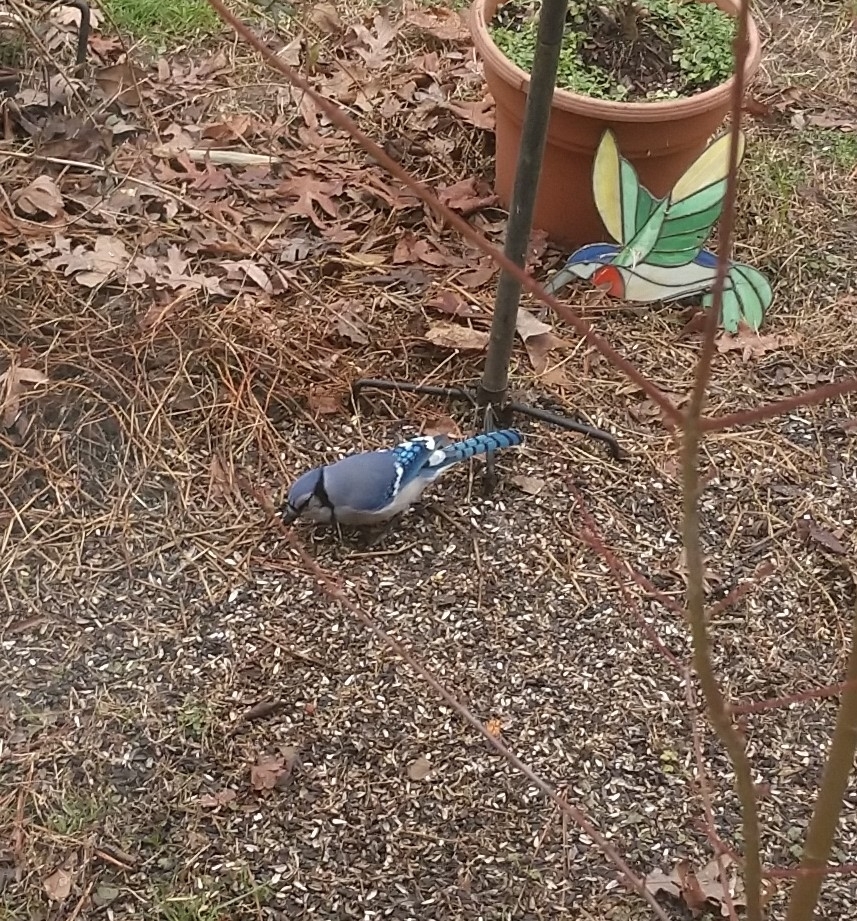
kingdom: Animalia
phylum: Chordata
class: Aves
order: Passeriformes
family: Corvidae
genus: Cyanocitta
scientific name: Cyanocitta cristata
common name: Blue jay
